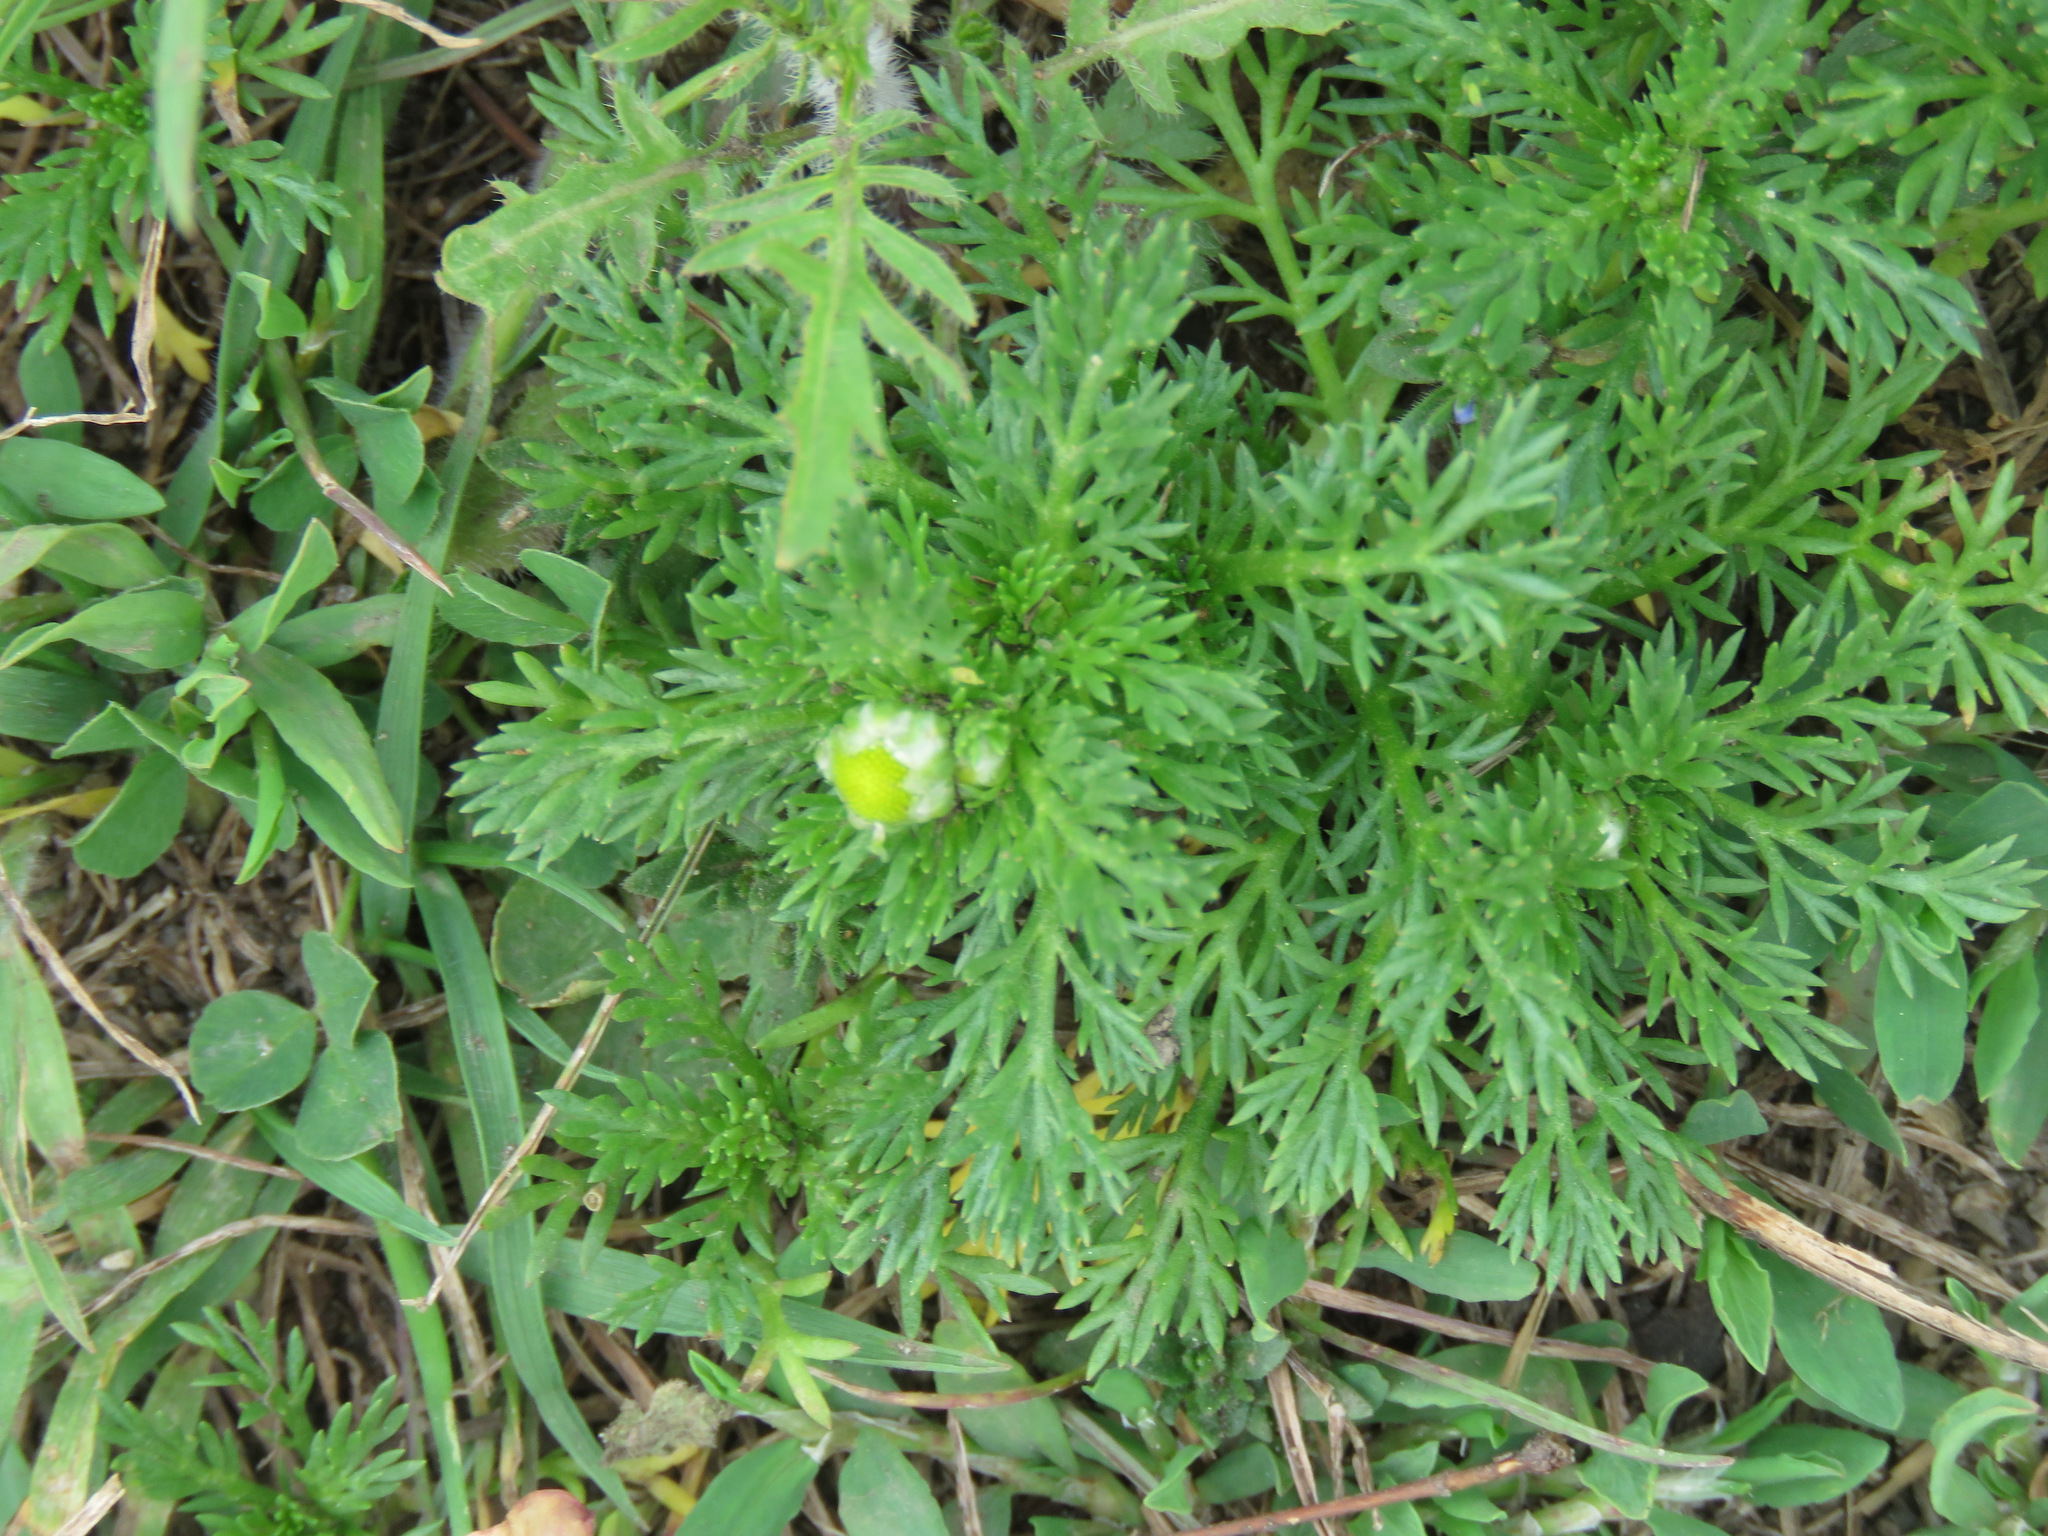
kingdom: Plantae
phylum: Tracheophyta
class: Magnoliopsida
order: Asterales
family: Asteraceae
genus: Matricaria
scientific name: Matricaria discoidea
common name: Disc mayweed
